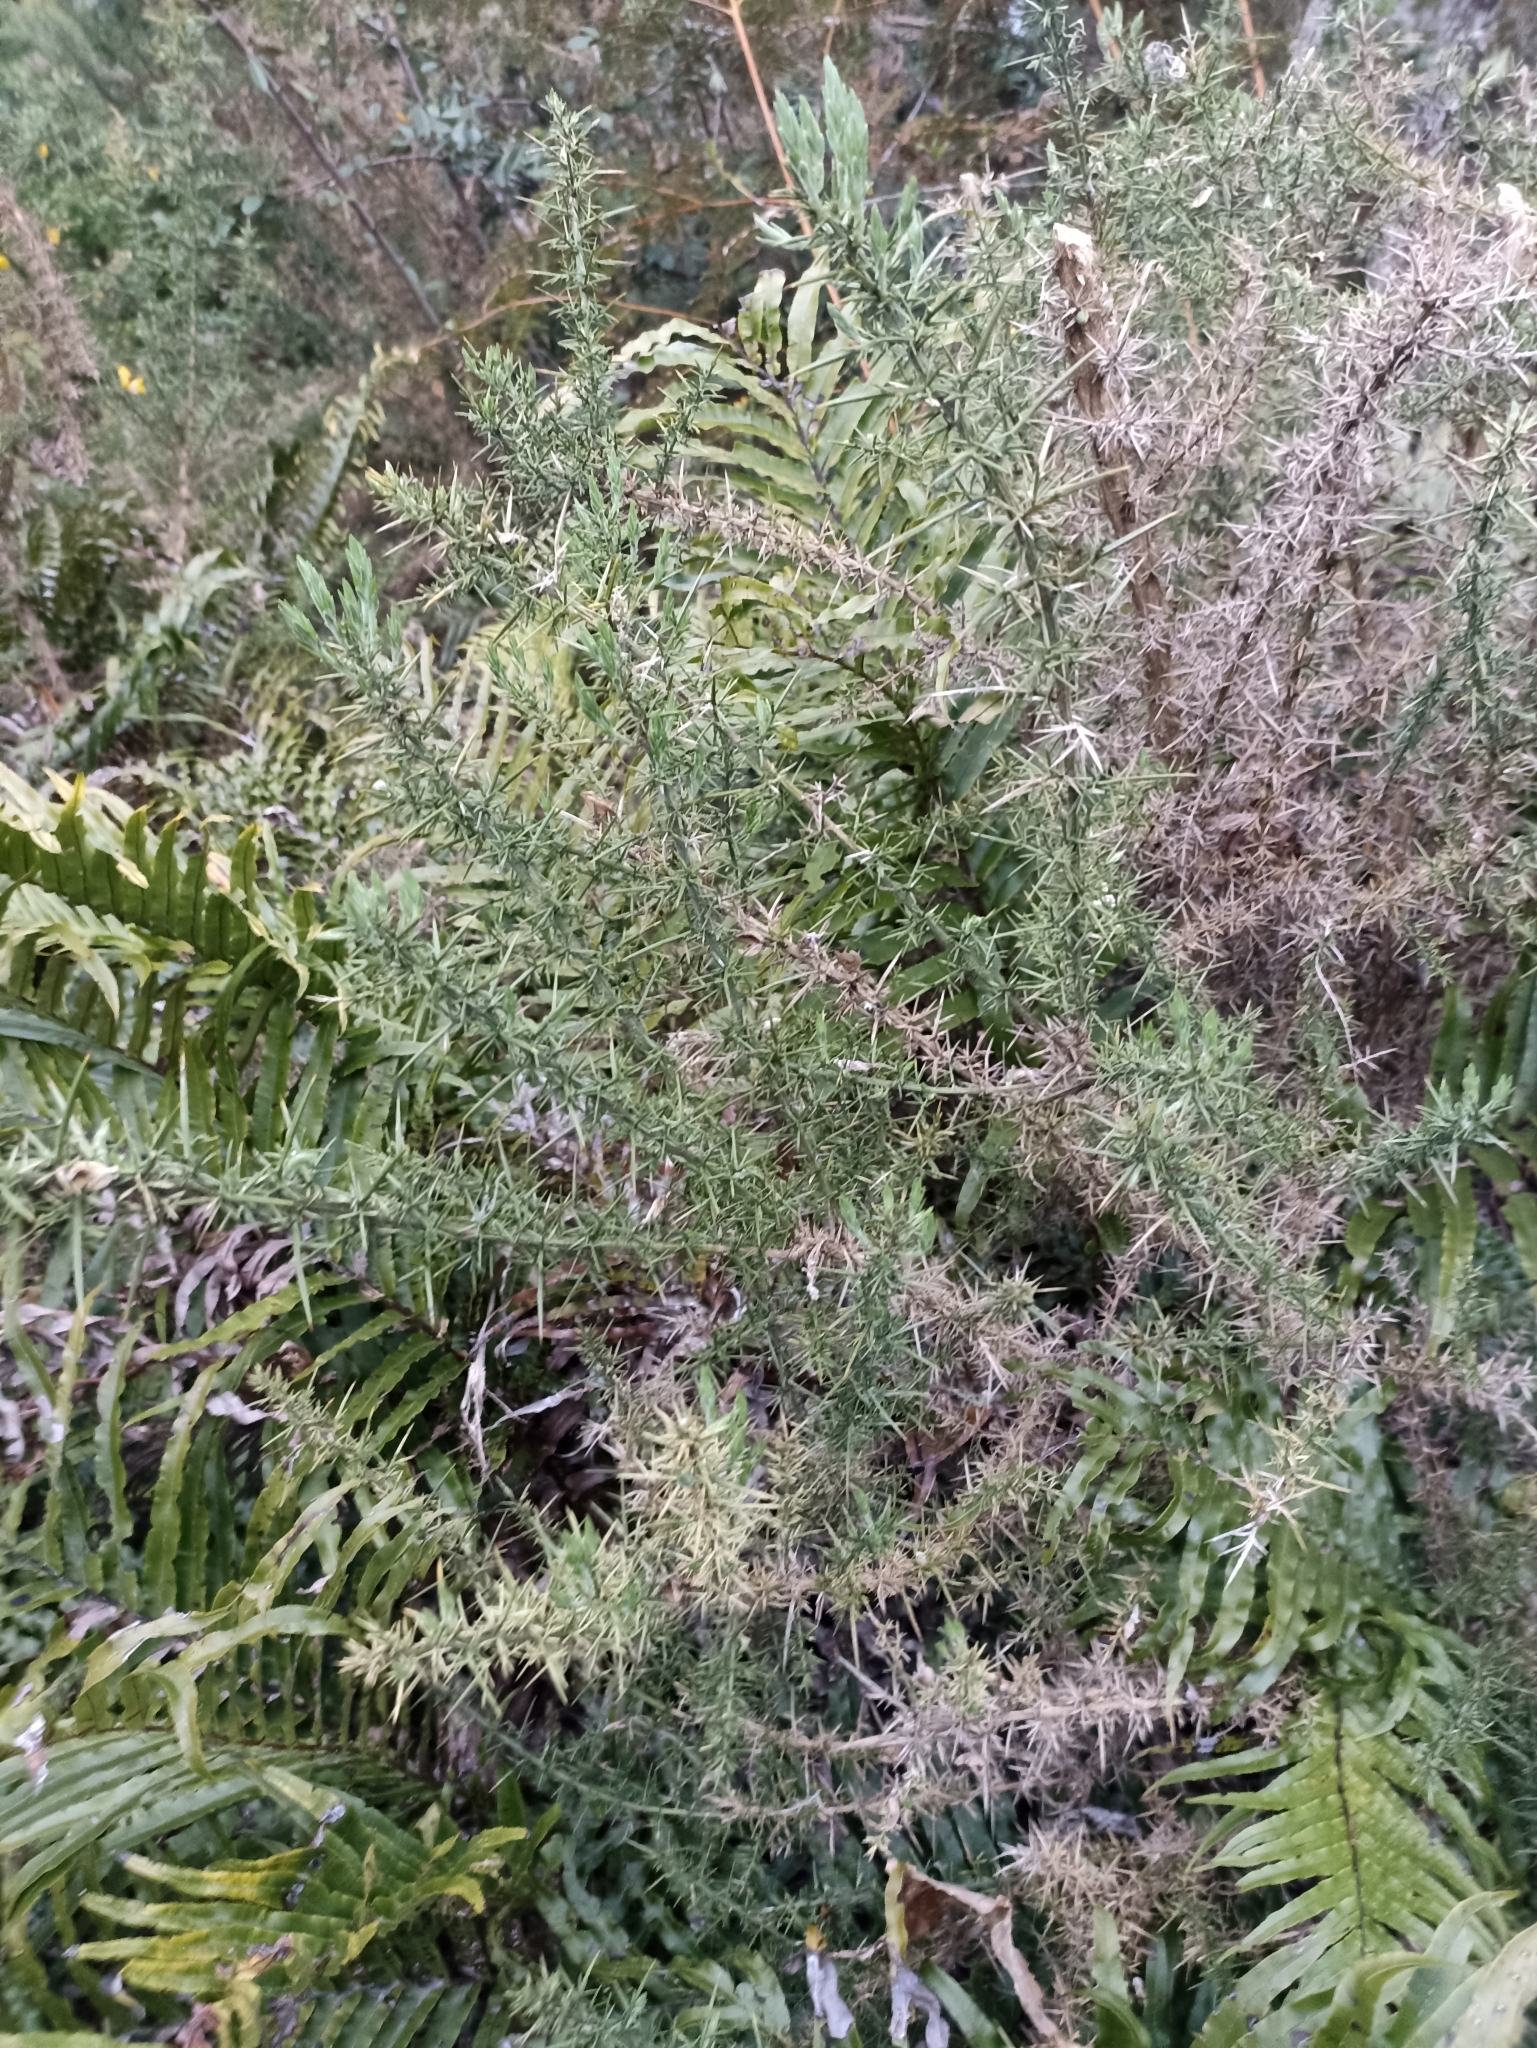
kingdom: Plantae
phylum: Tracheophyta
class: Magnoliopsida
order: Fabales
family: Fabaceae
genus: Ulex
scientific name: Ulex europaeus
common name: Common gorse
